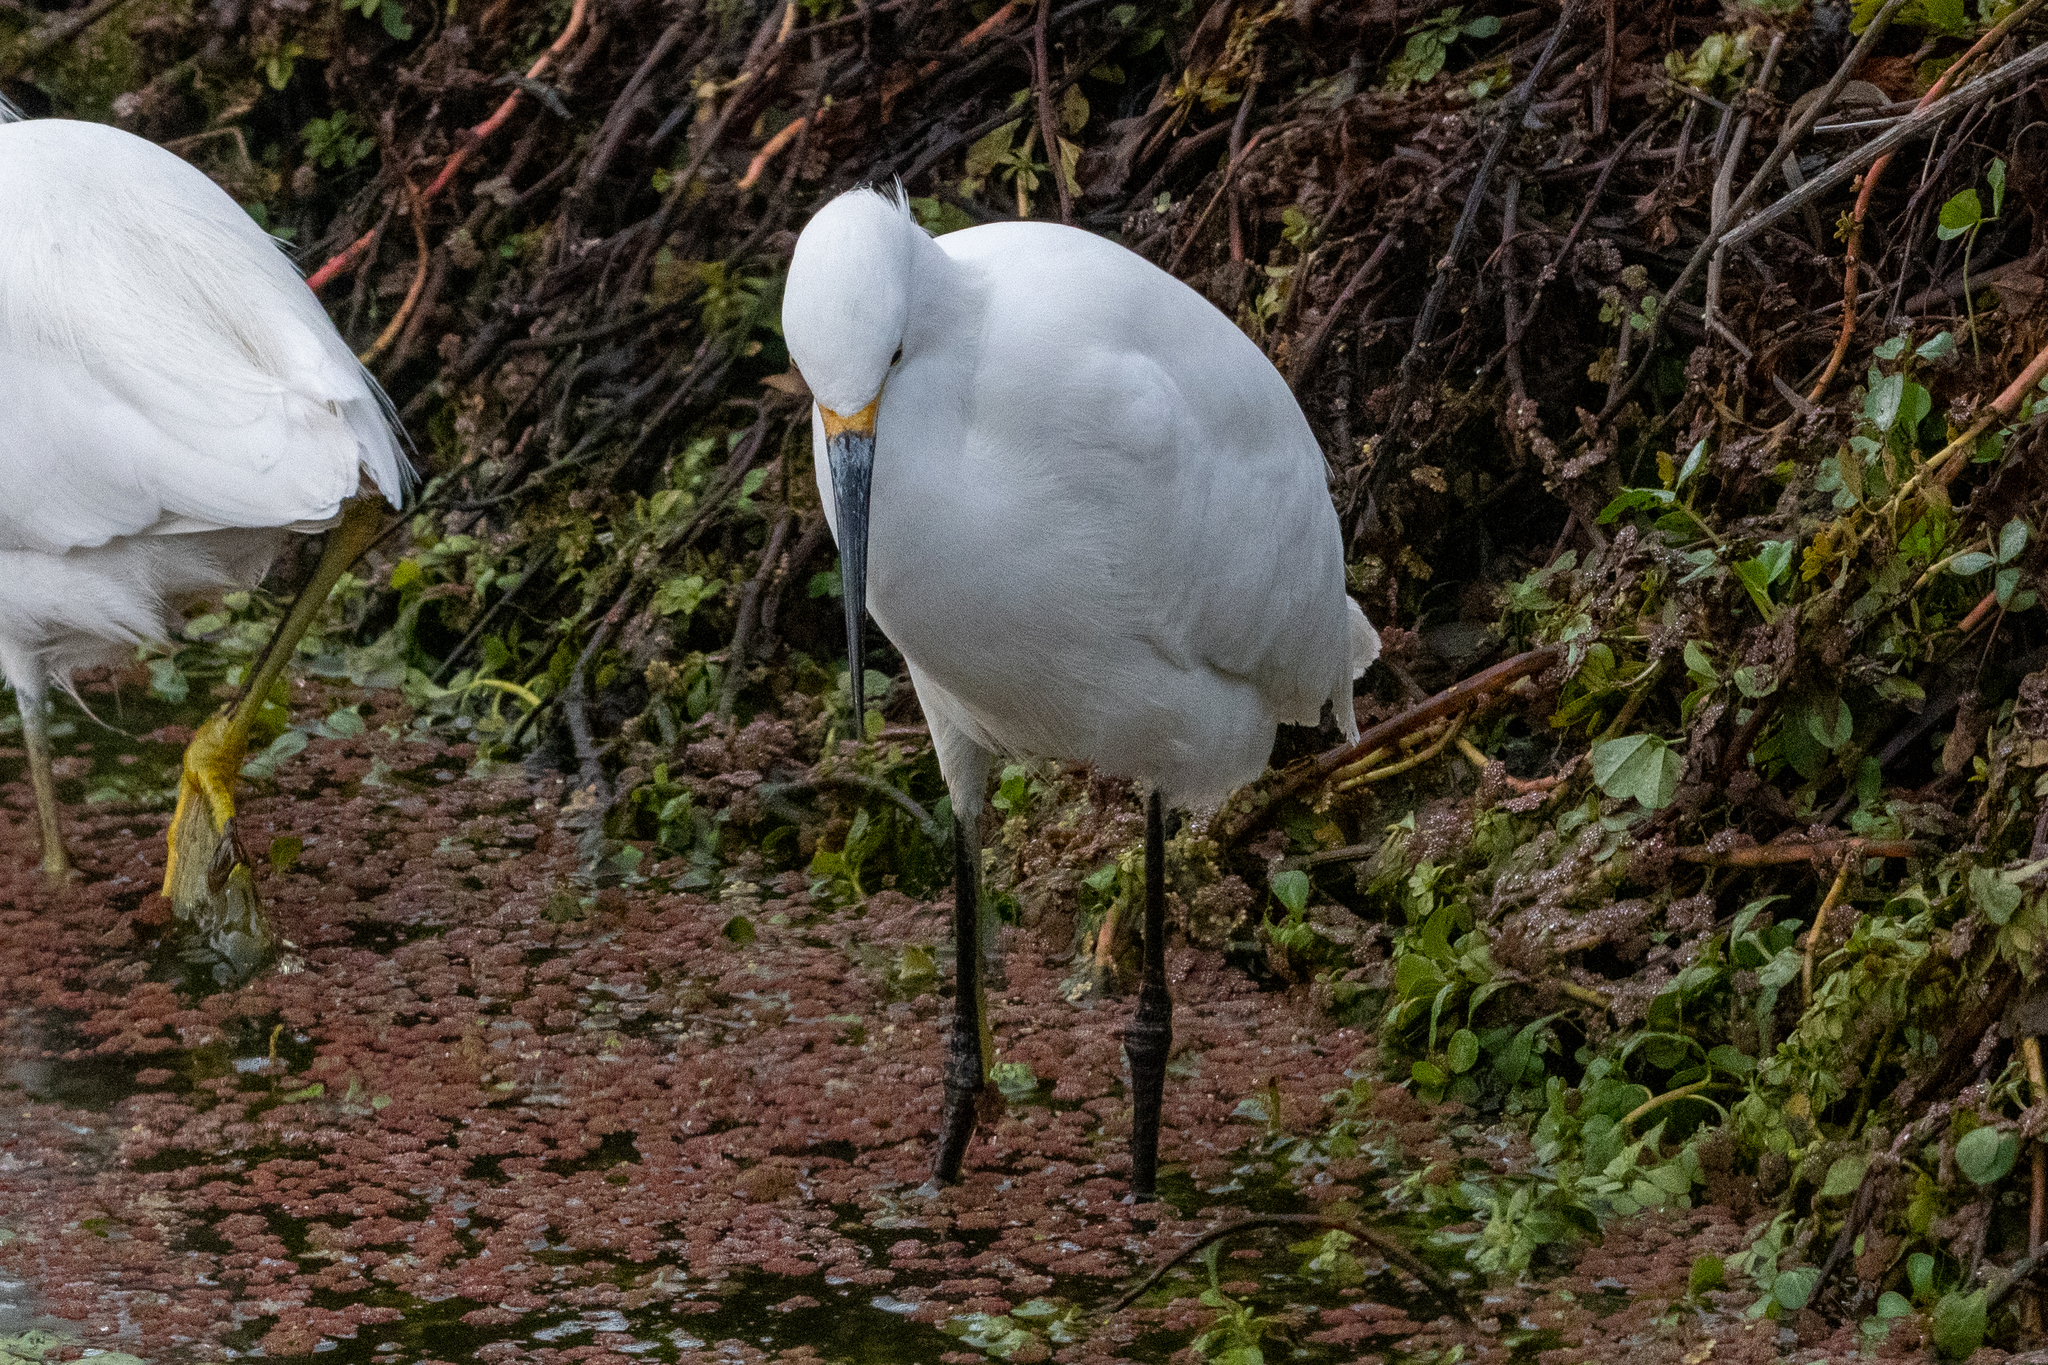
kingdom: Animalia
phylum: Chordata
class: Aves
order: Pelecaniformes
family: Ardeidae
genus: Egretta
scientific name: Egretta thula
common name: Snowy egret
